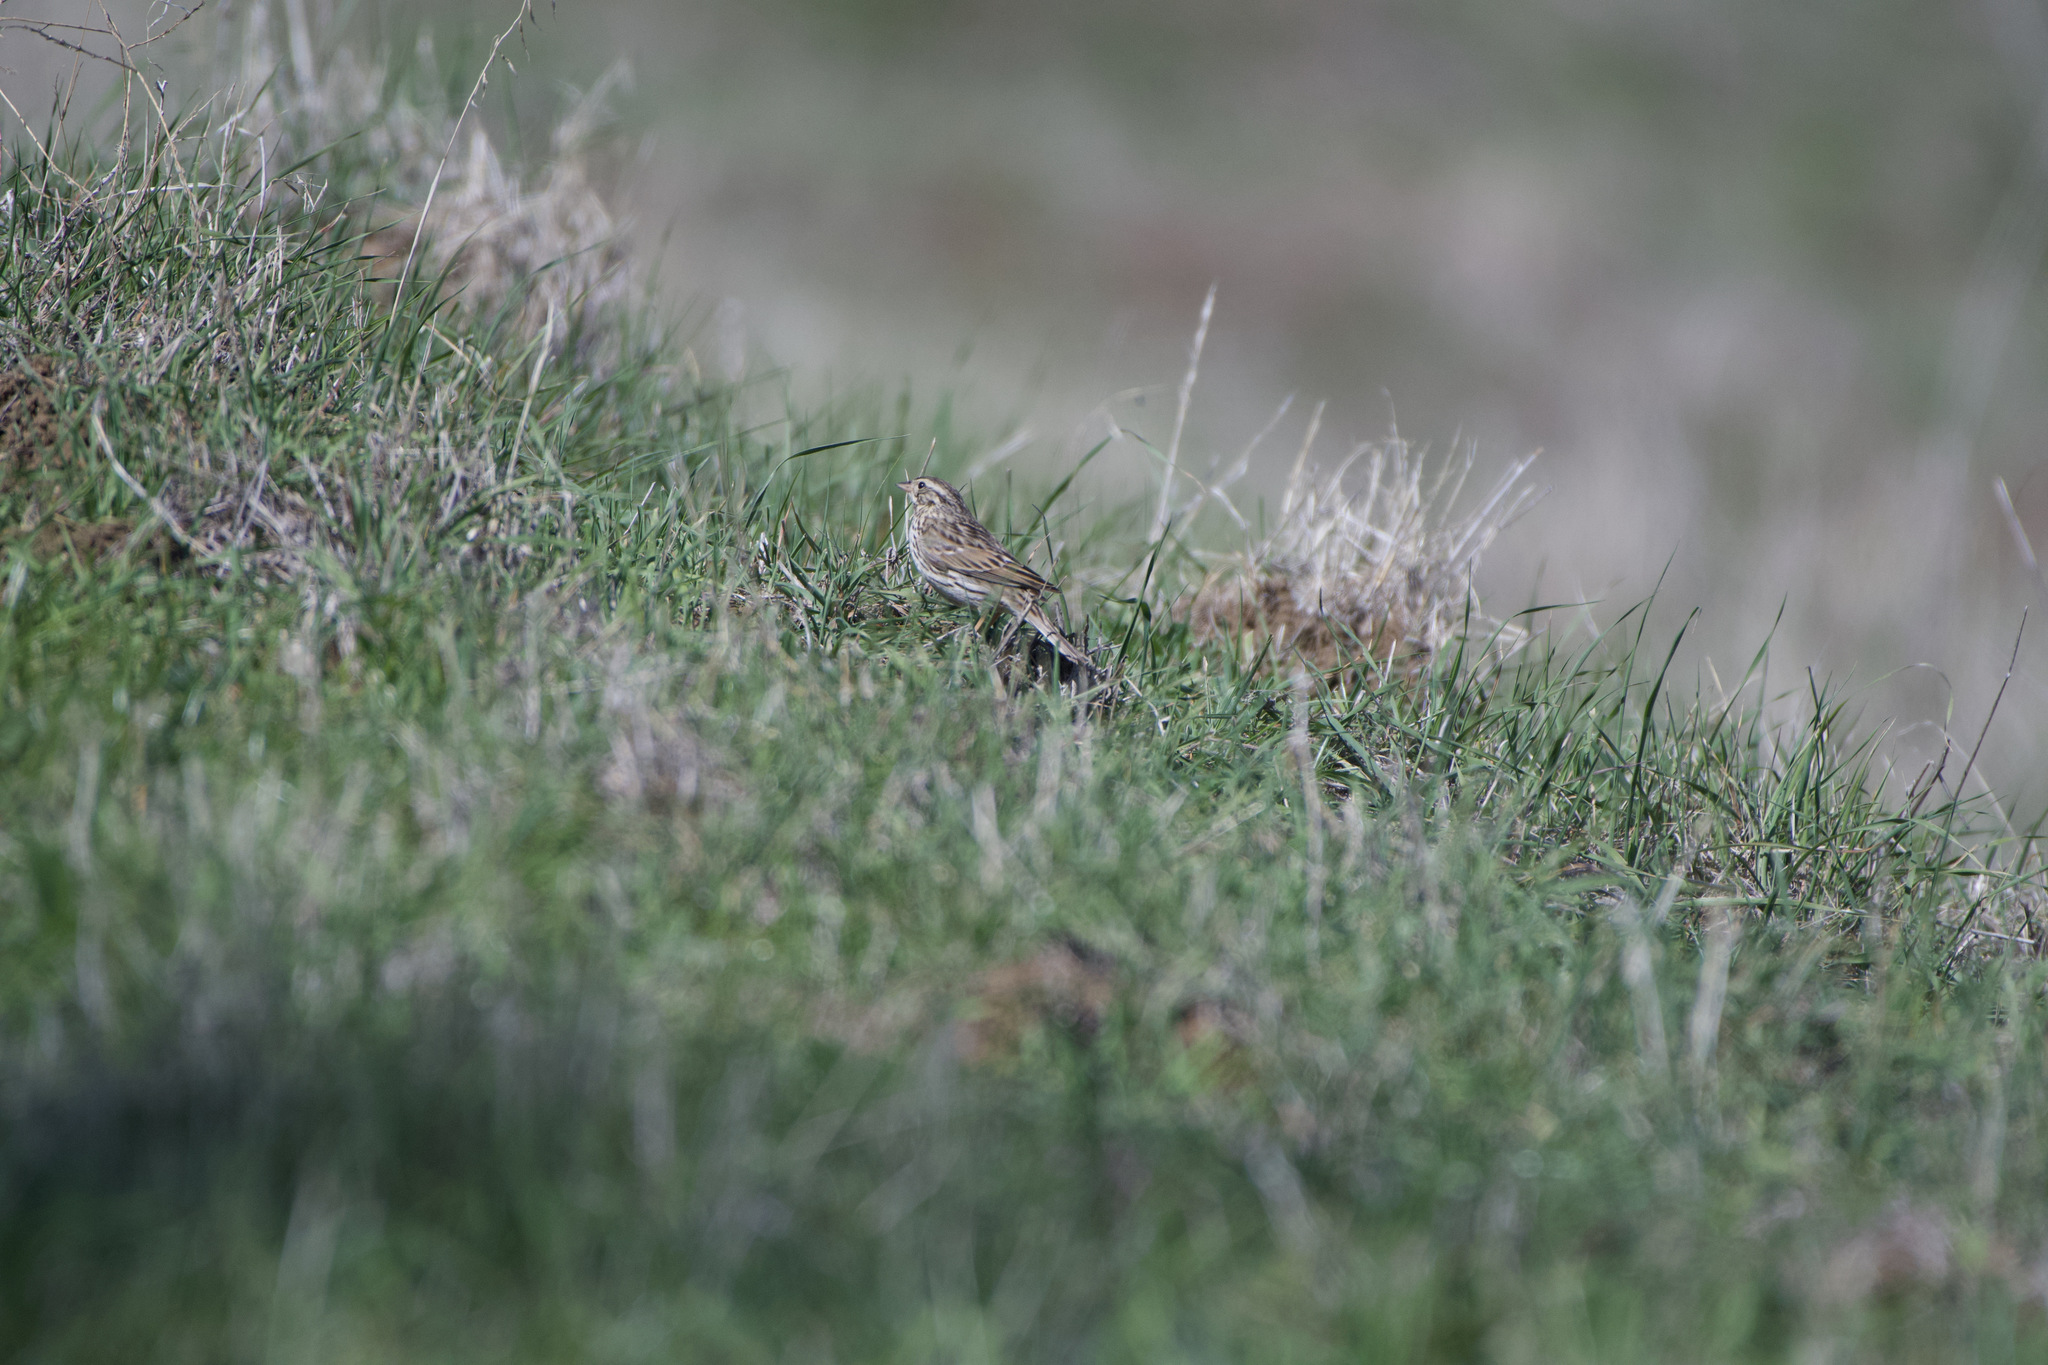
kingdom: Animalia
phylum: Chordata
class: Aves
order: Passeriformes
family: Passerellidae
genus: Passerculus
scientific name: Passerculus sandwichensis
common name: Savannah sparrow
